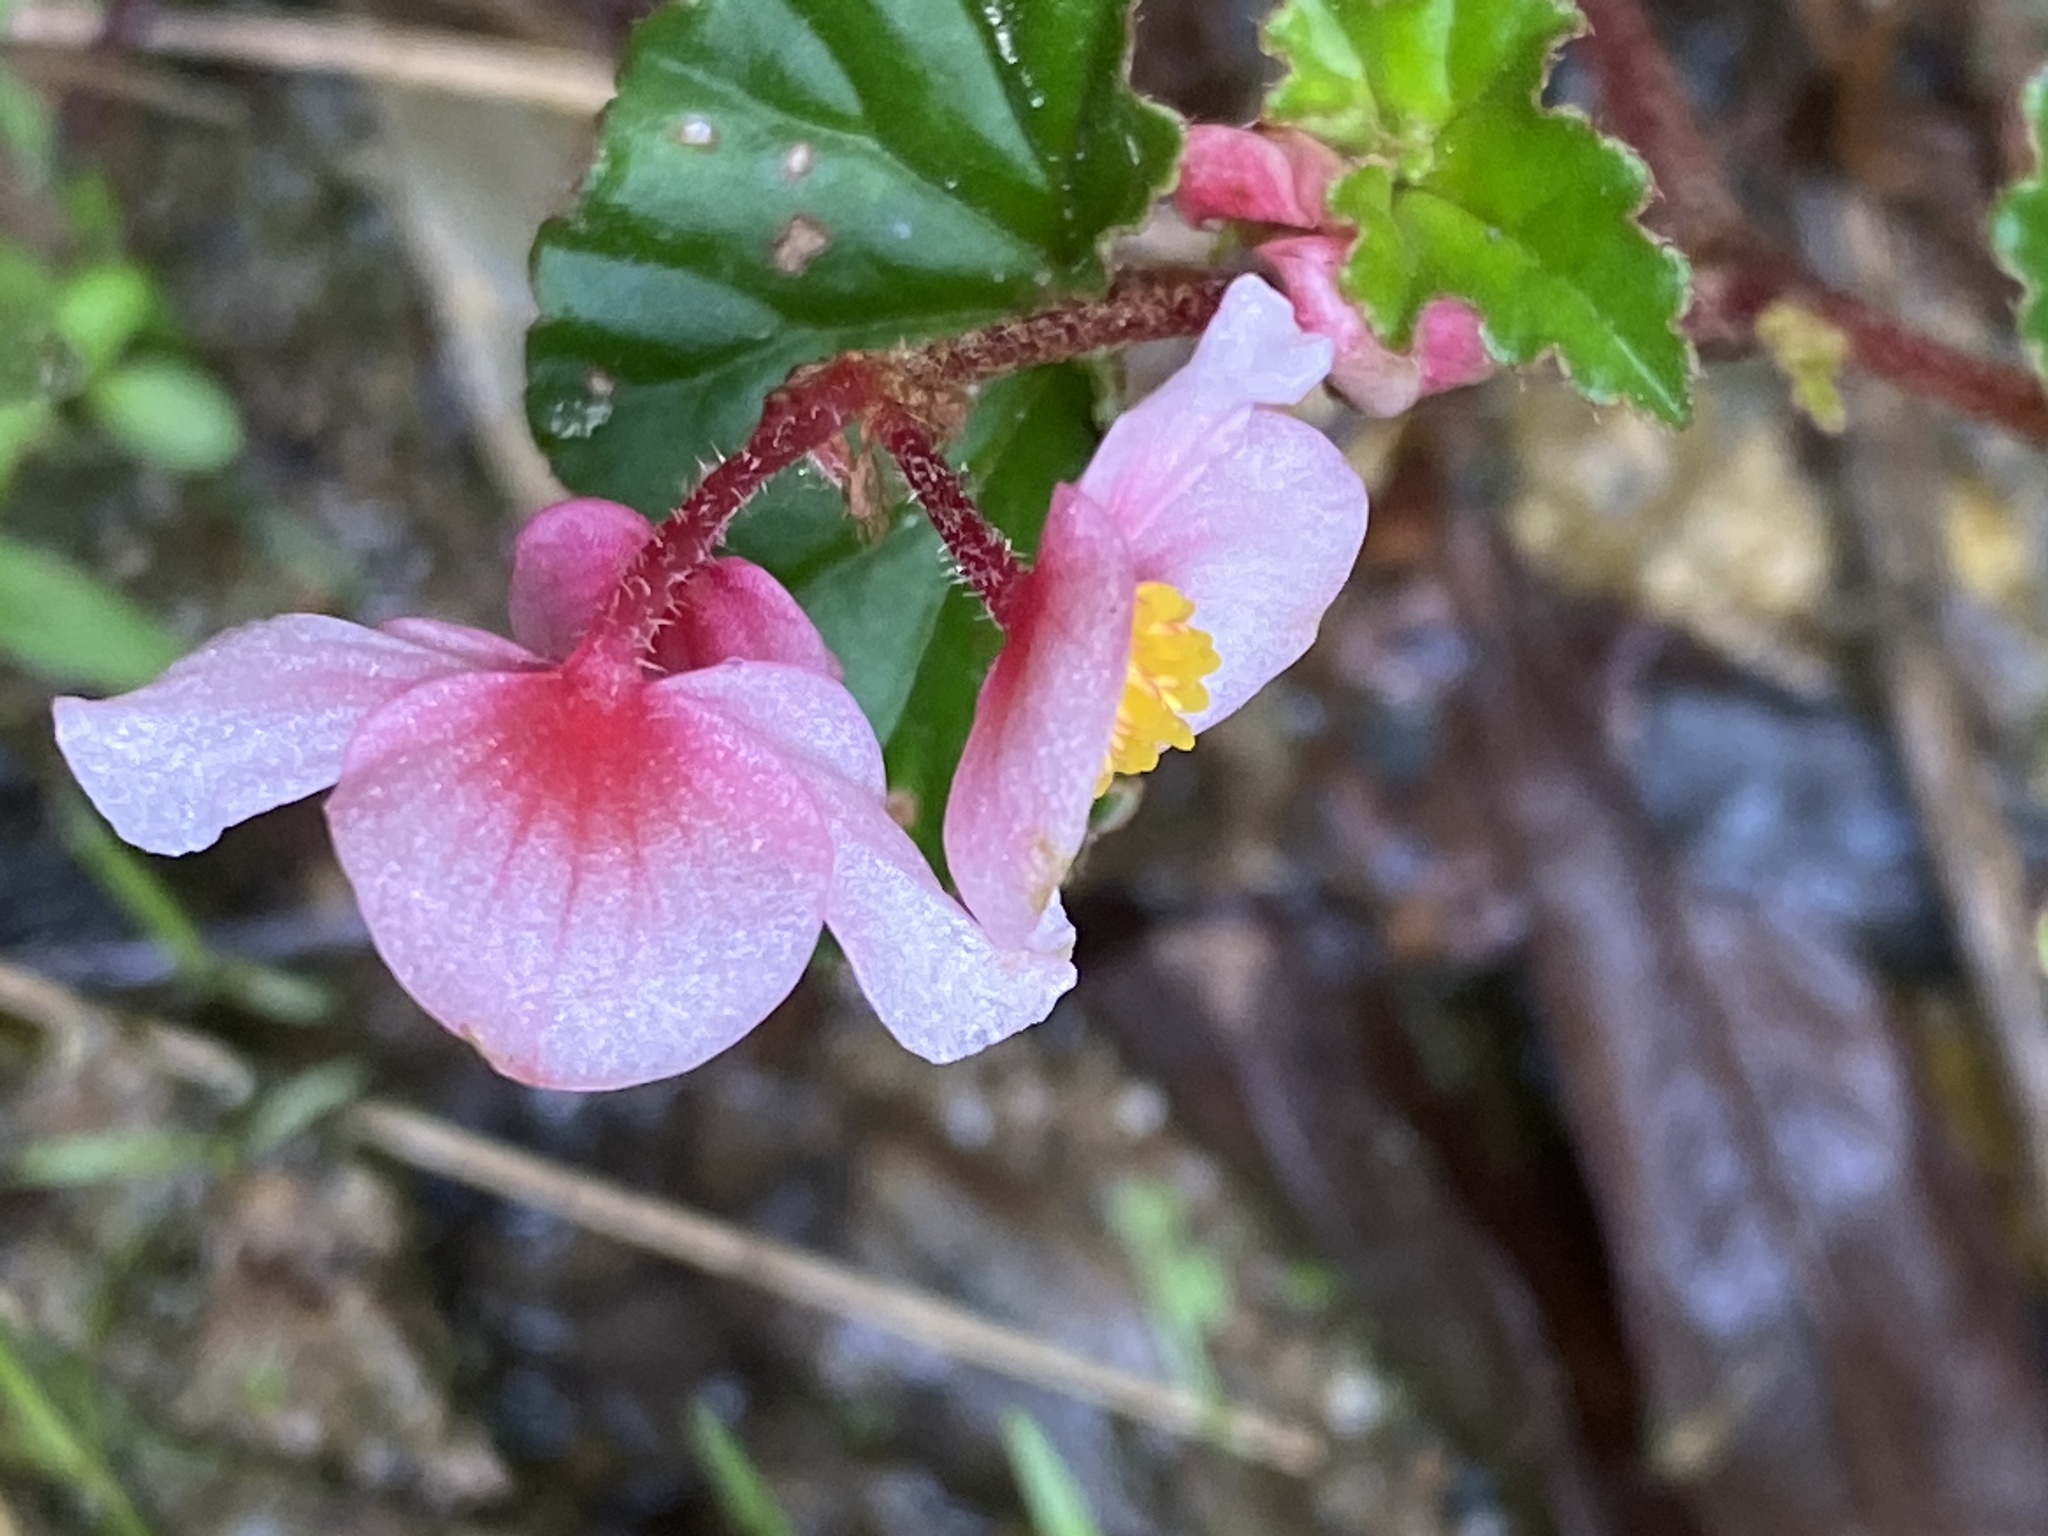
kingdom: Plantae
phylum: Tracheophyta
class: Magnoliopsida
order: Cucurbitales
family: Begoniaceae
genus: Begonia
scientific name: Begonia fischeri
